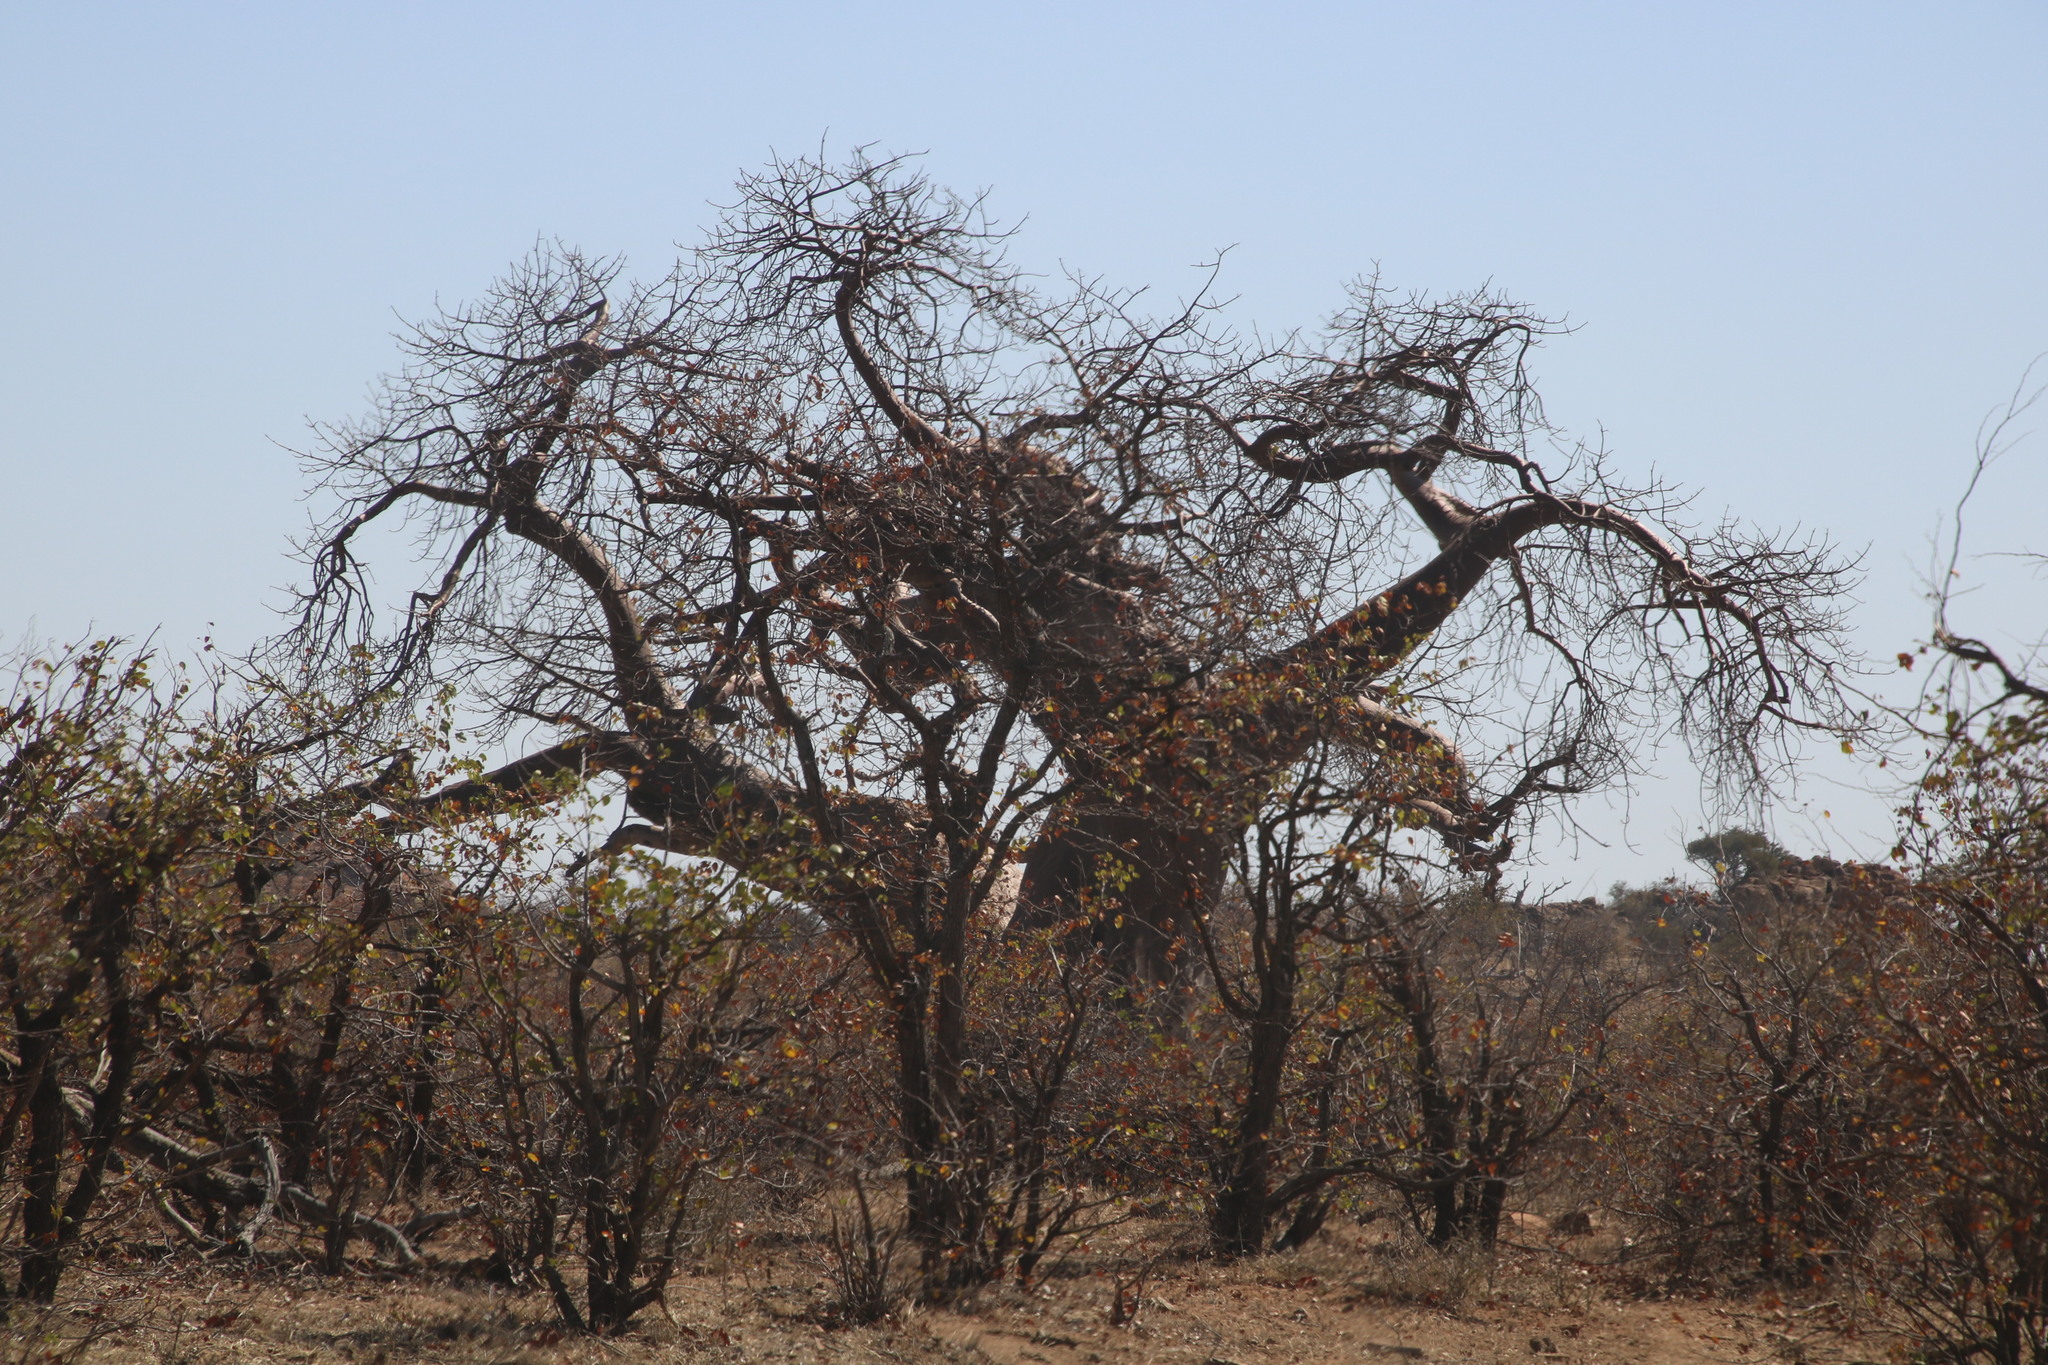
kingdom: Plantae
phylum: Tracheophyta
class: Magnoliopsida
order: Malvales
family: Malvaceae
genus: Adansonia
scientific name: Adansonia digitata
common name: Dead-rat-tree
